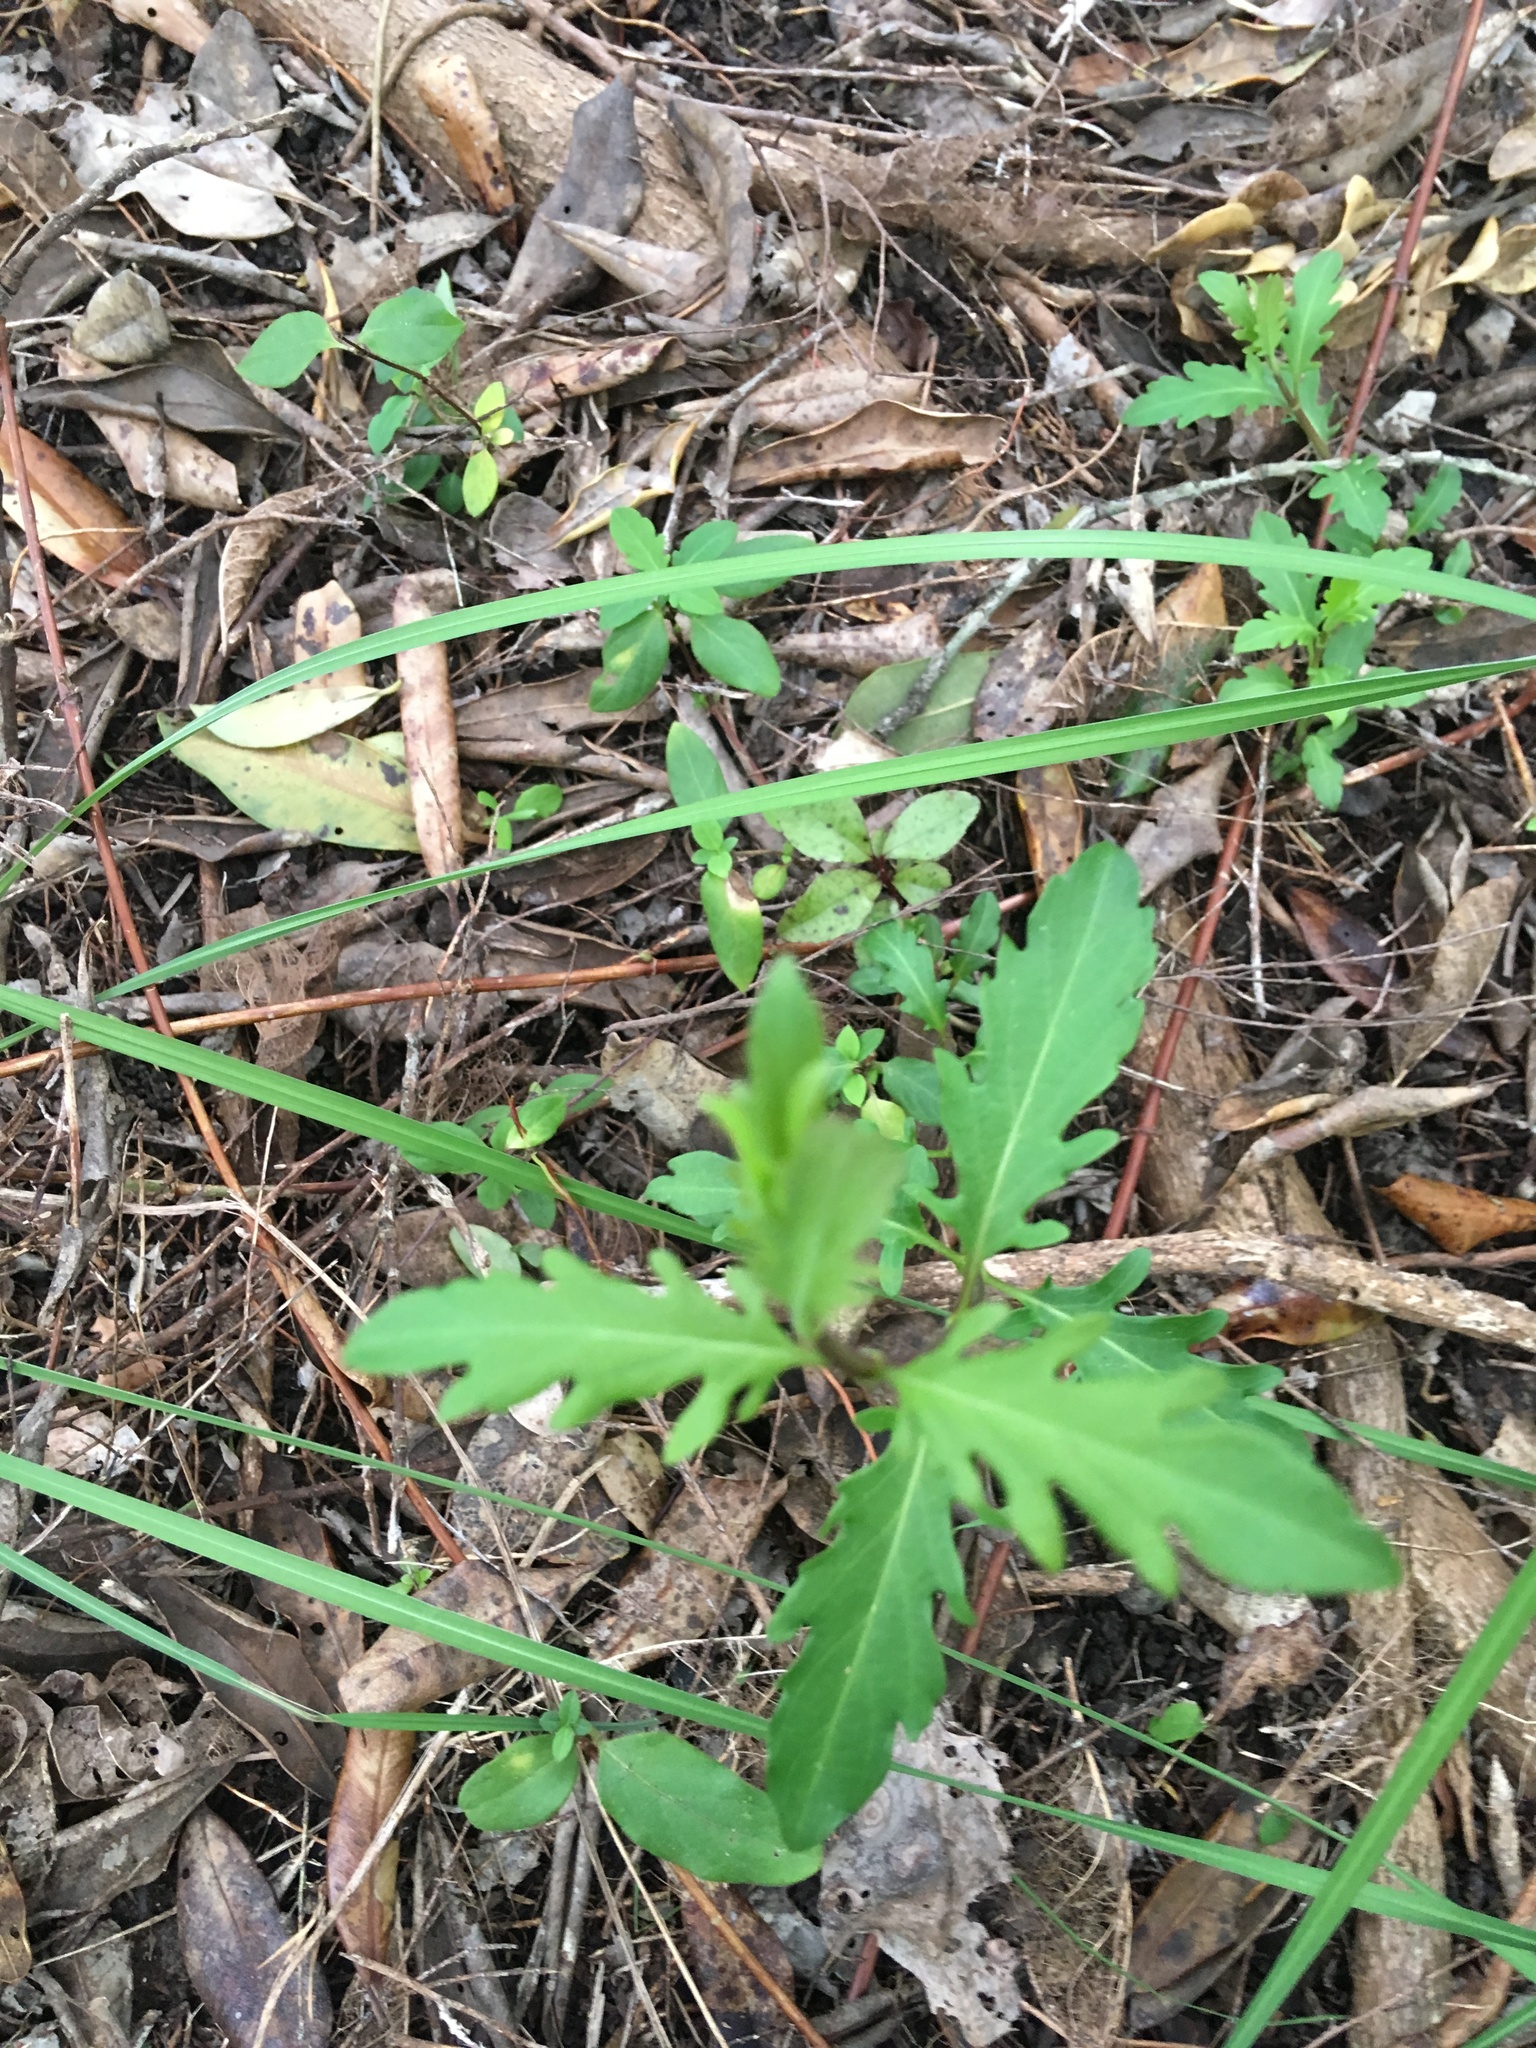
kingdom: Plantae
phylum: Tracheophyta
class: Magnoliopsida
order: Ericales
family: Primulaceae
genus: Myrsine
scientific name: Myrsine australis
